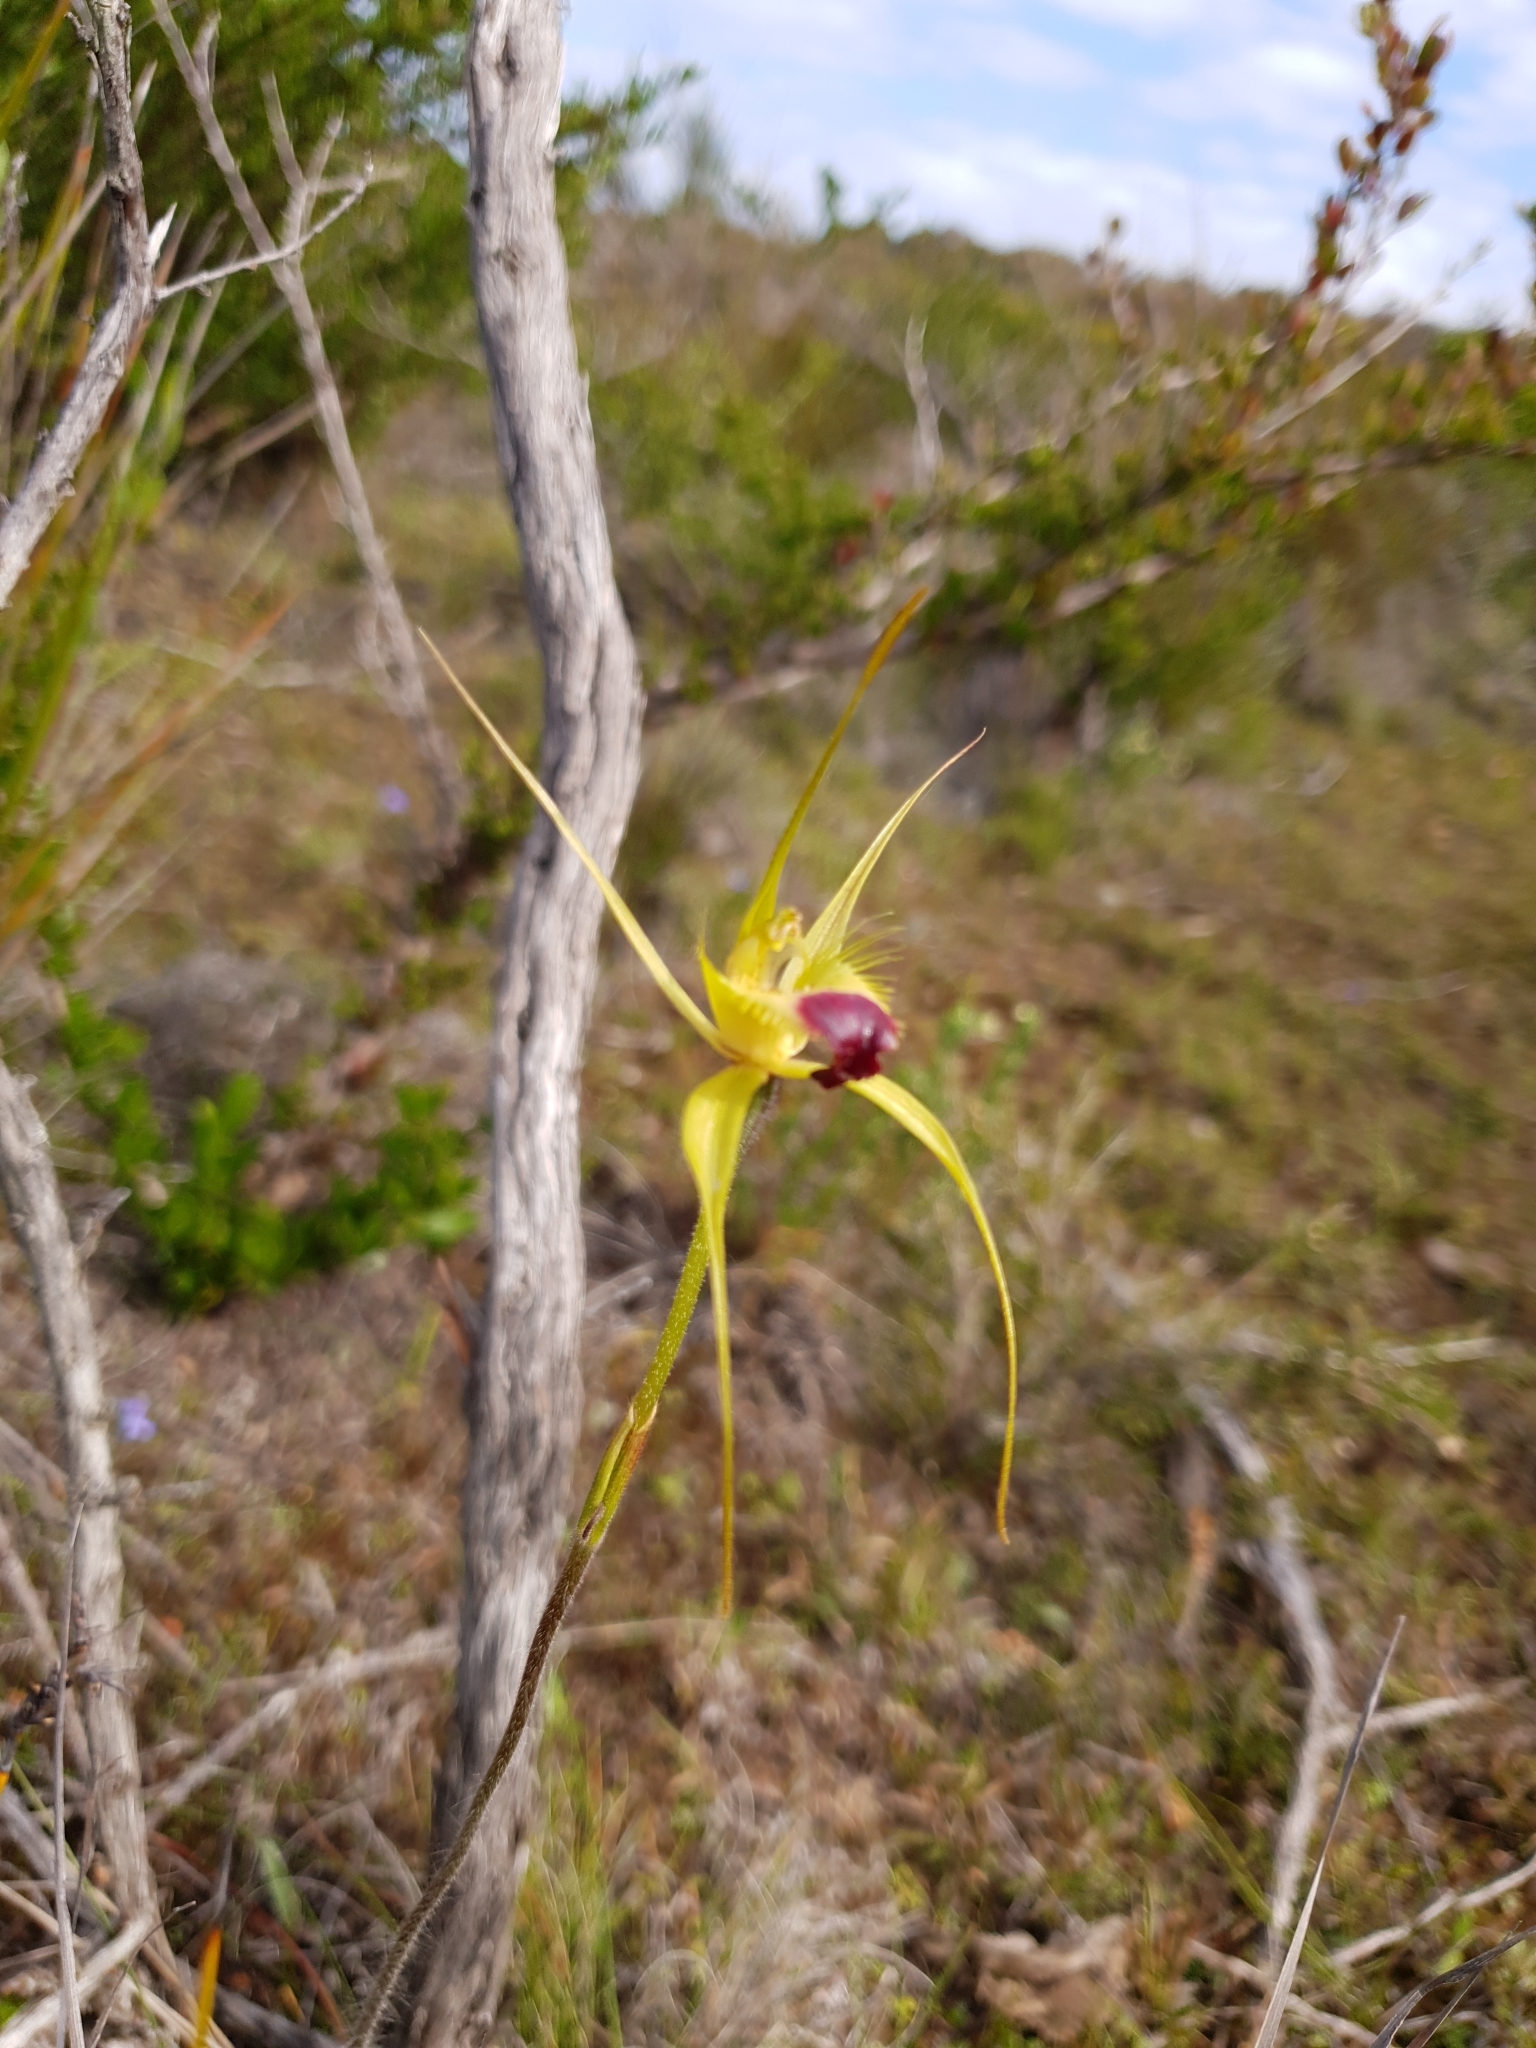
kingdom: Plantae
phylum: Tracheophyta
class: Liliopsida
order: Asparagales
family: Orchidaceae
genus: Caladenia
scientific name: Caladenia infundibularis
